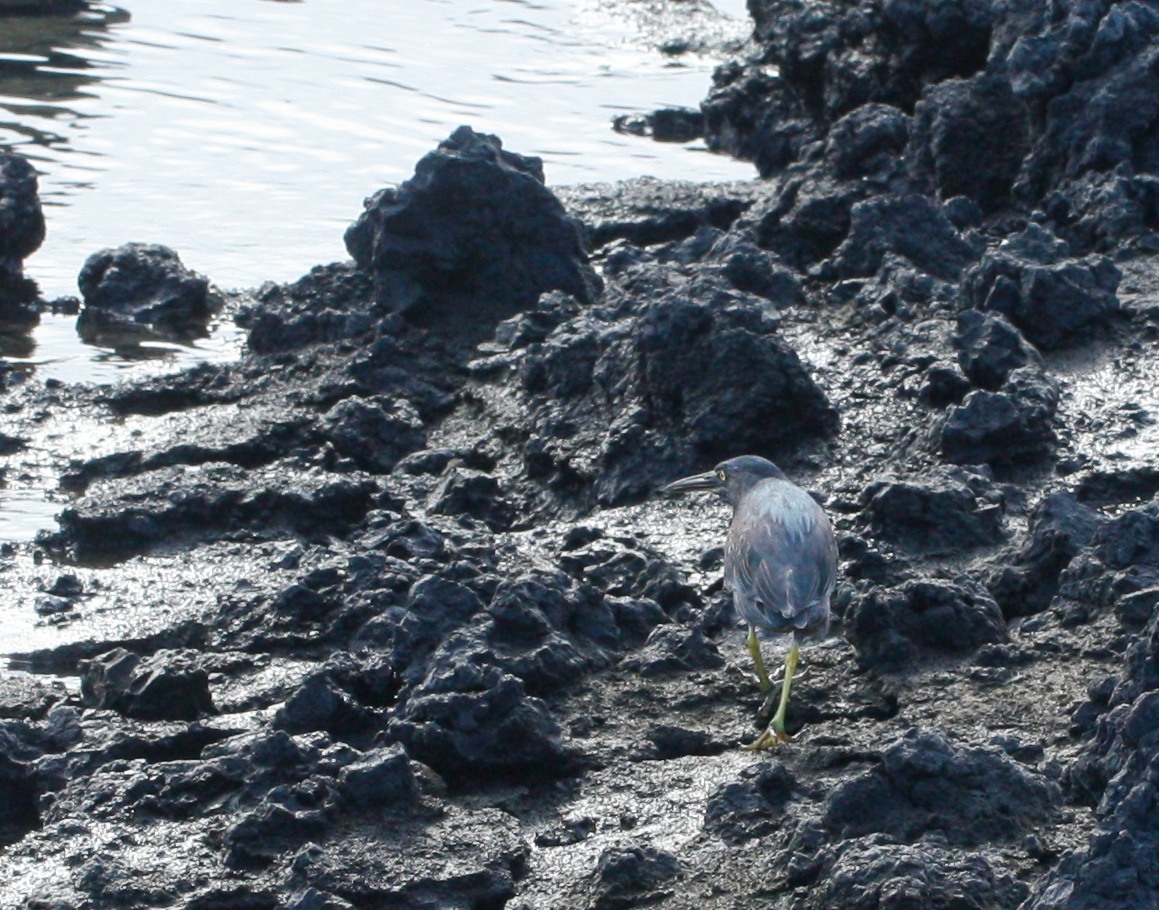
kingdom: Animalia
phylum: Chordata
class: Aves
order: Pelecaniformes
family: Ardeidae
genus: Butorides
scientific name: Butorides striata
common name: Striated heron
